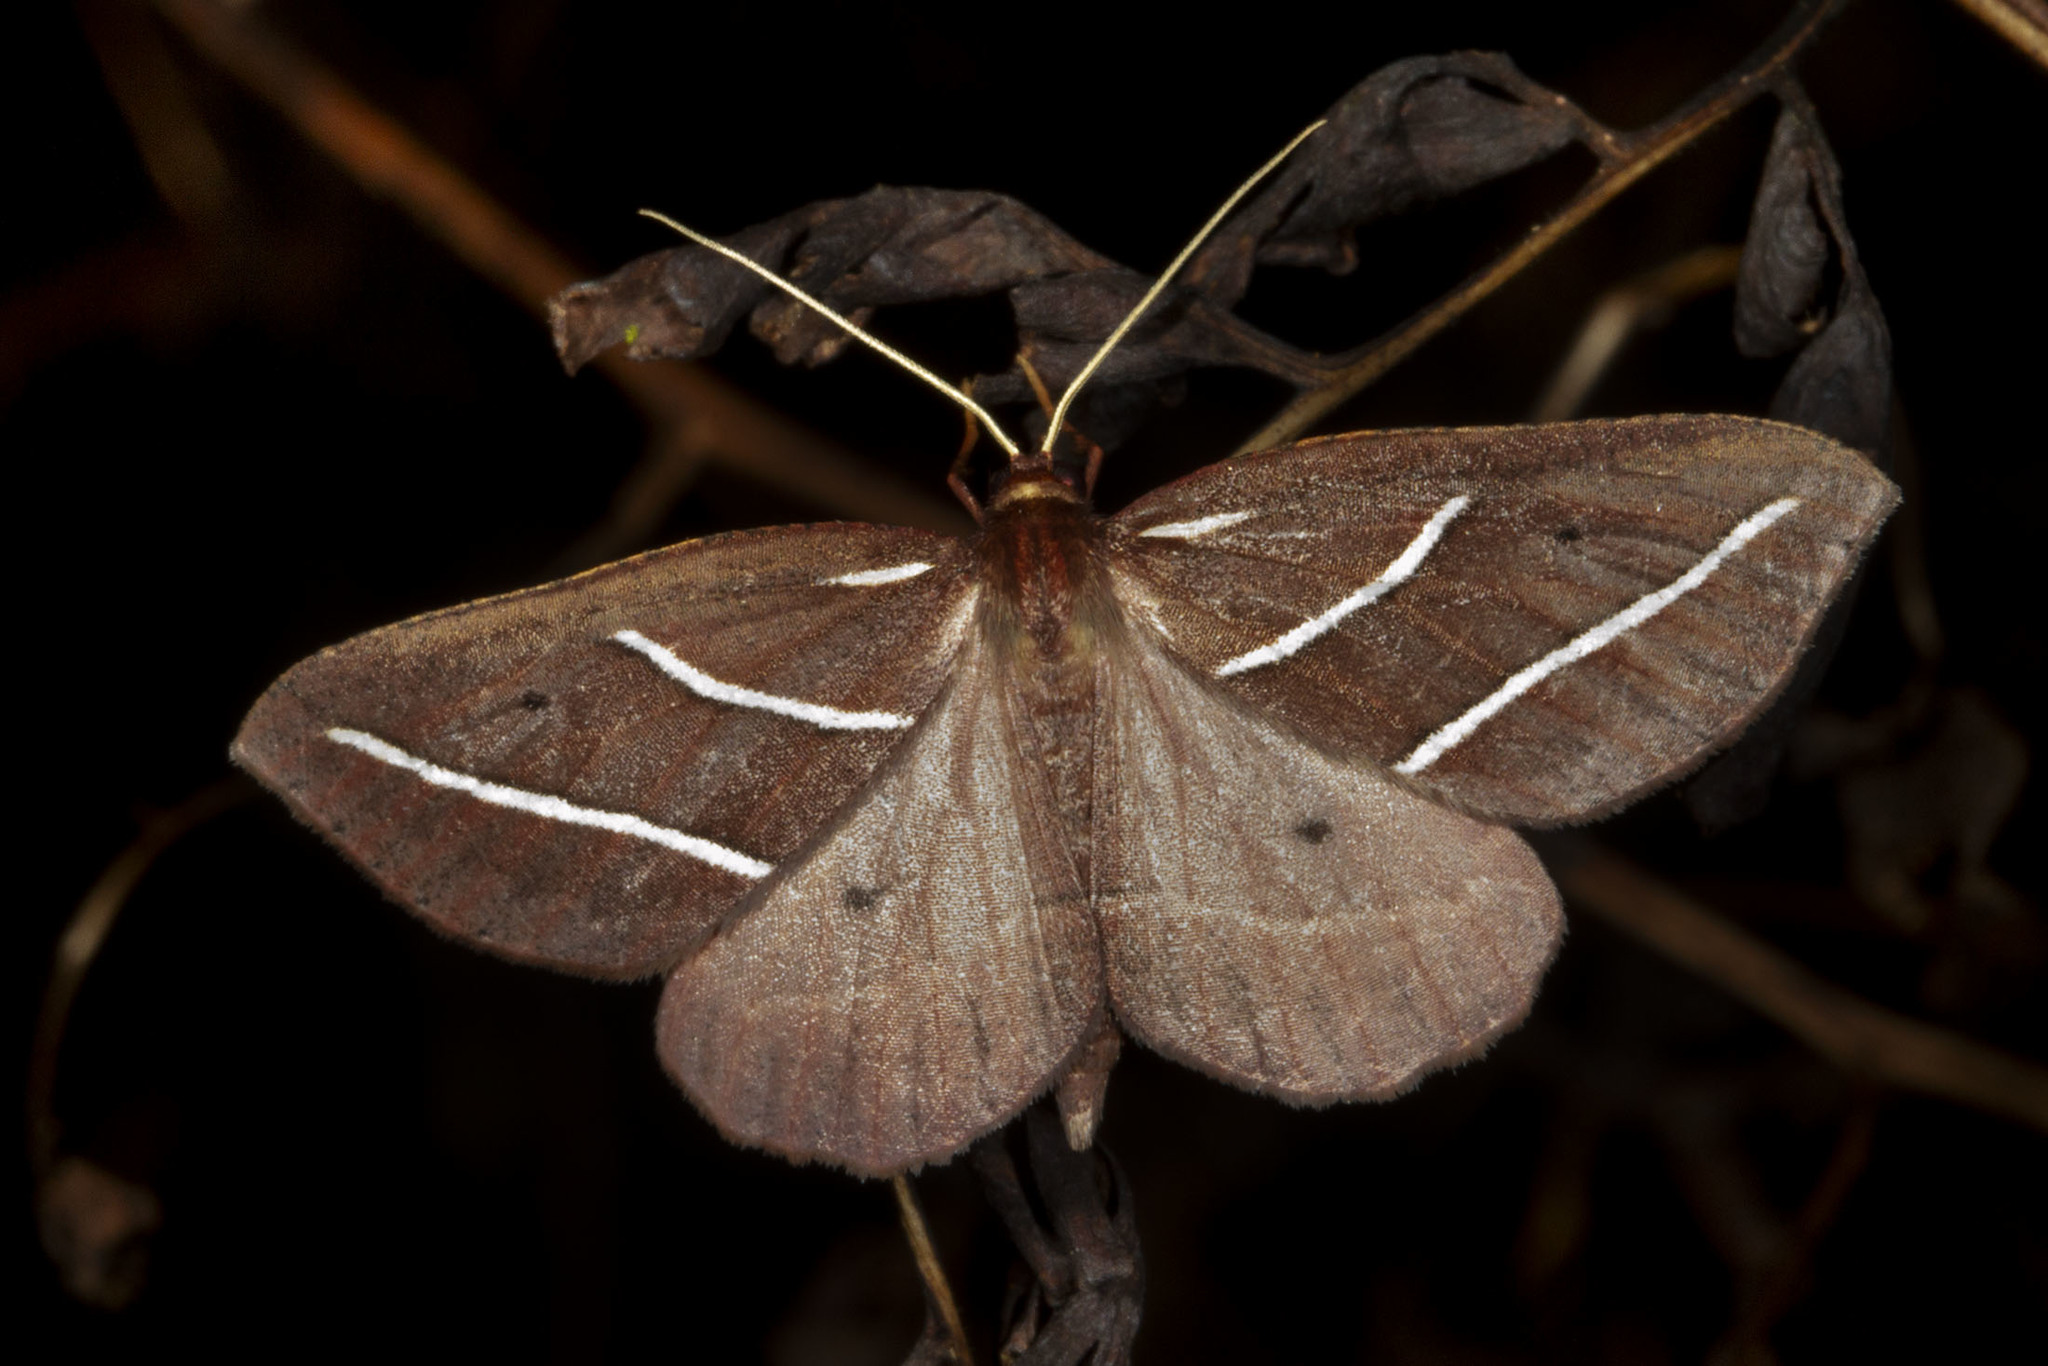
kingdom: Animalia
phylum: Arthropoda
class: Insecta
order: Lepidoptera
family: Geometridae
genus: Idiodes
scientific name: Idiodes albilinea
